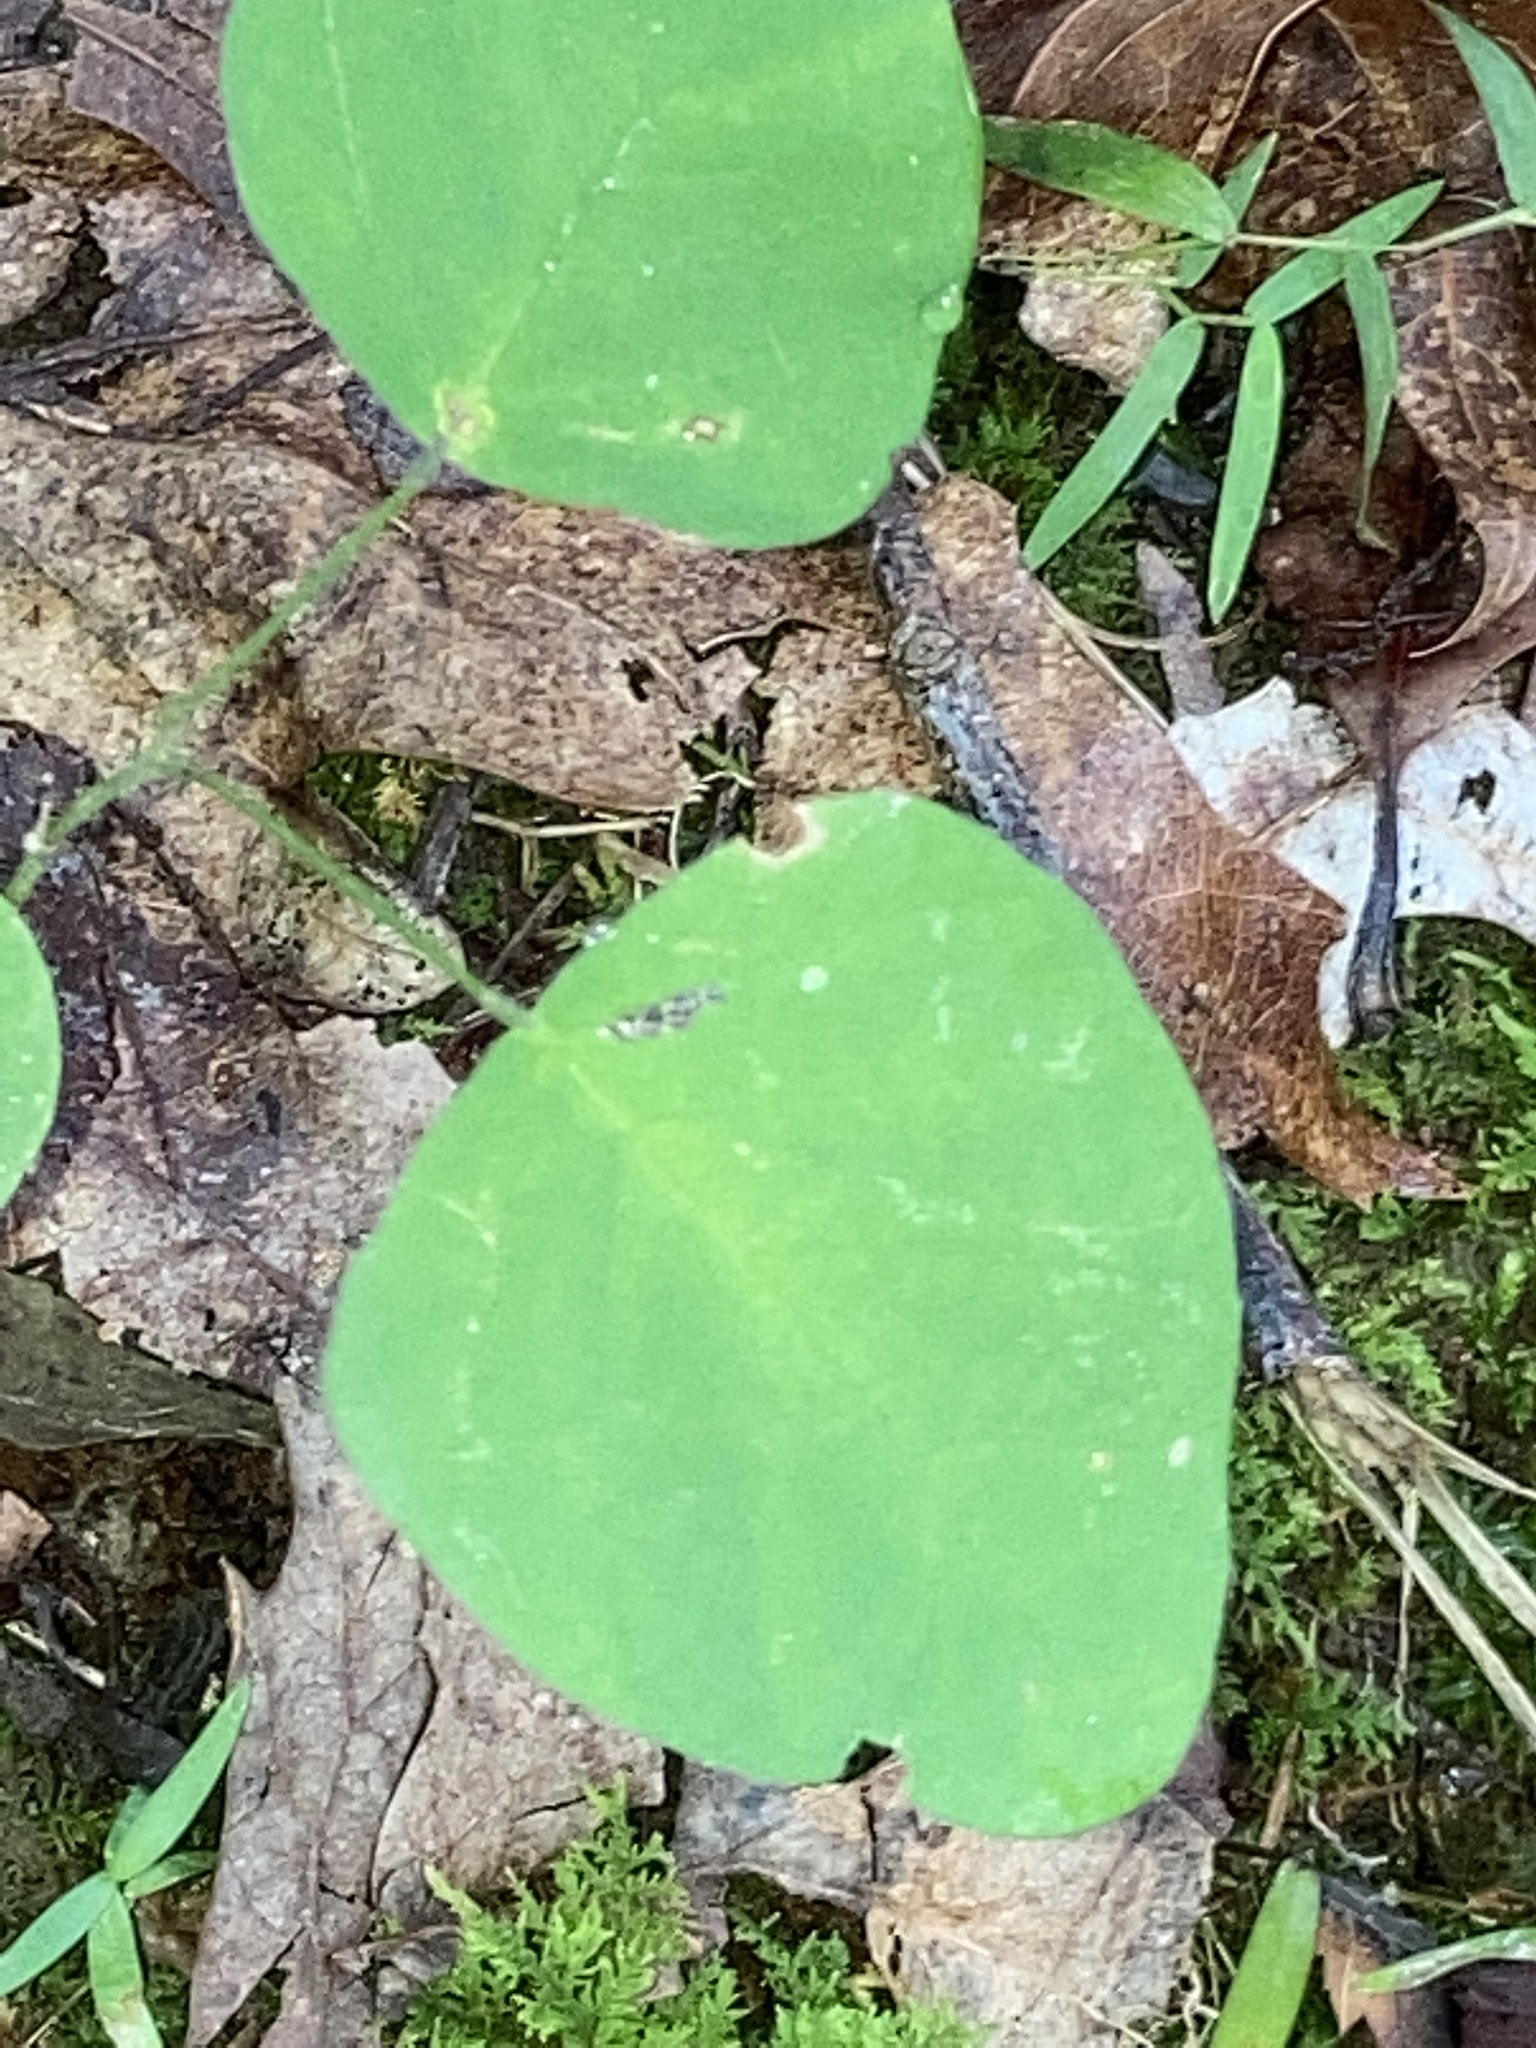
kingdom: Plantae
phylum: Tracheophyta
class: Magnoliopsida
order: Fabales
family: Fabaceae
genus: Desmodium
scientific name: Desmodium
